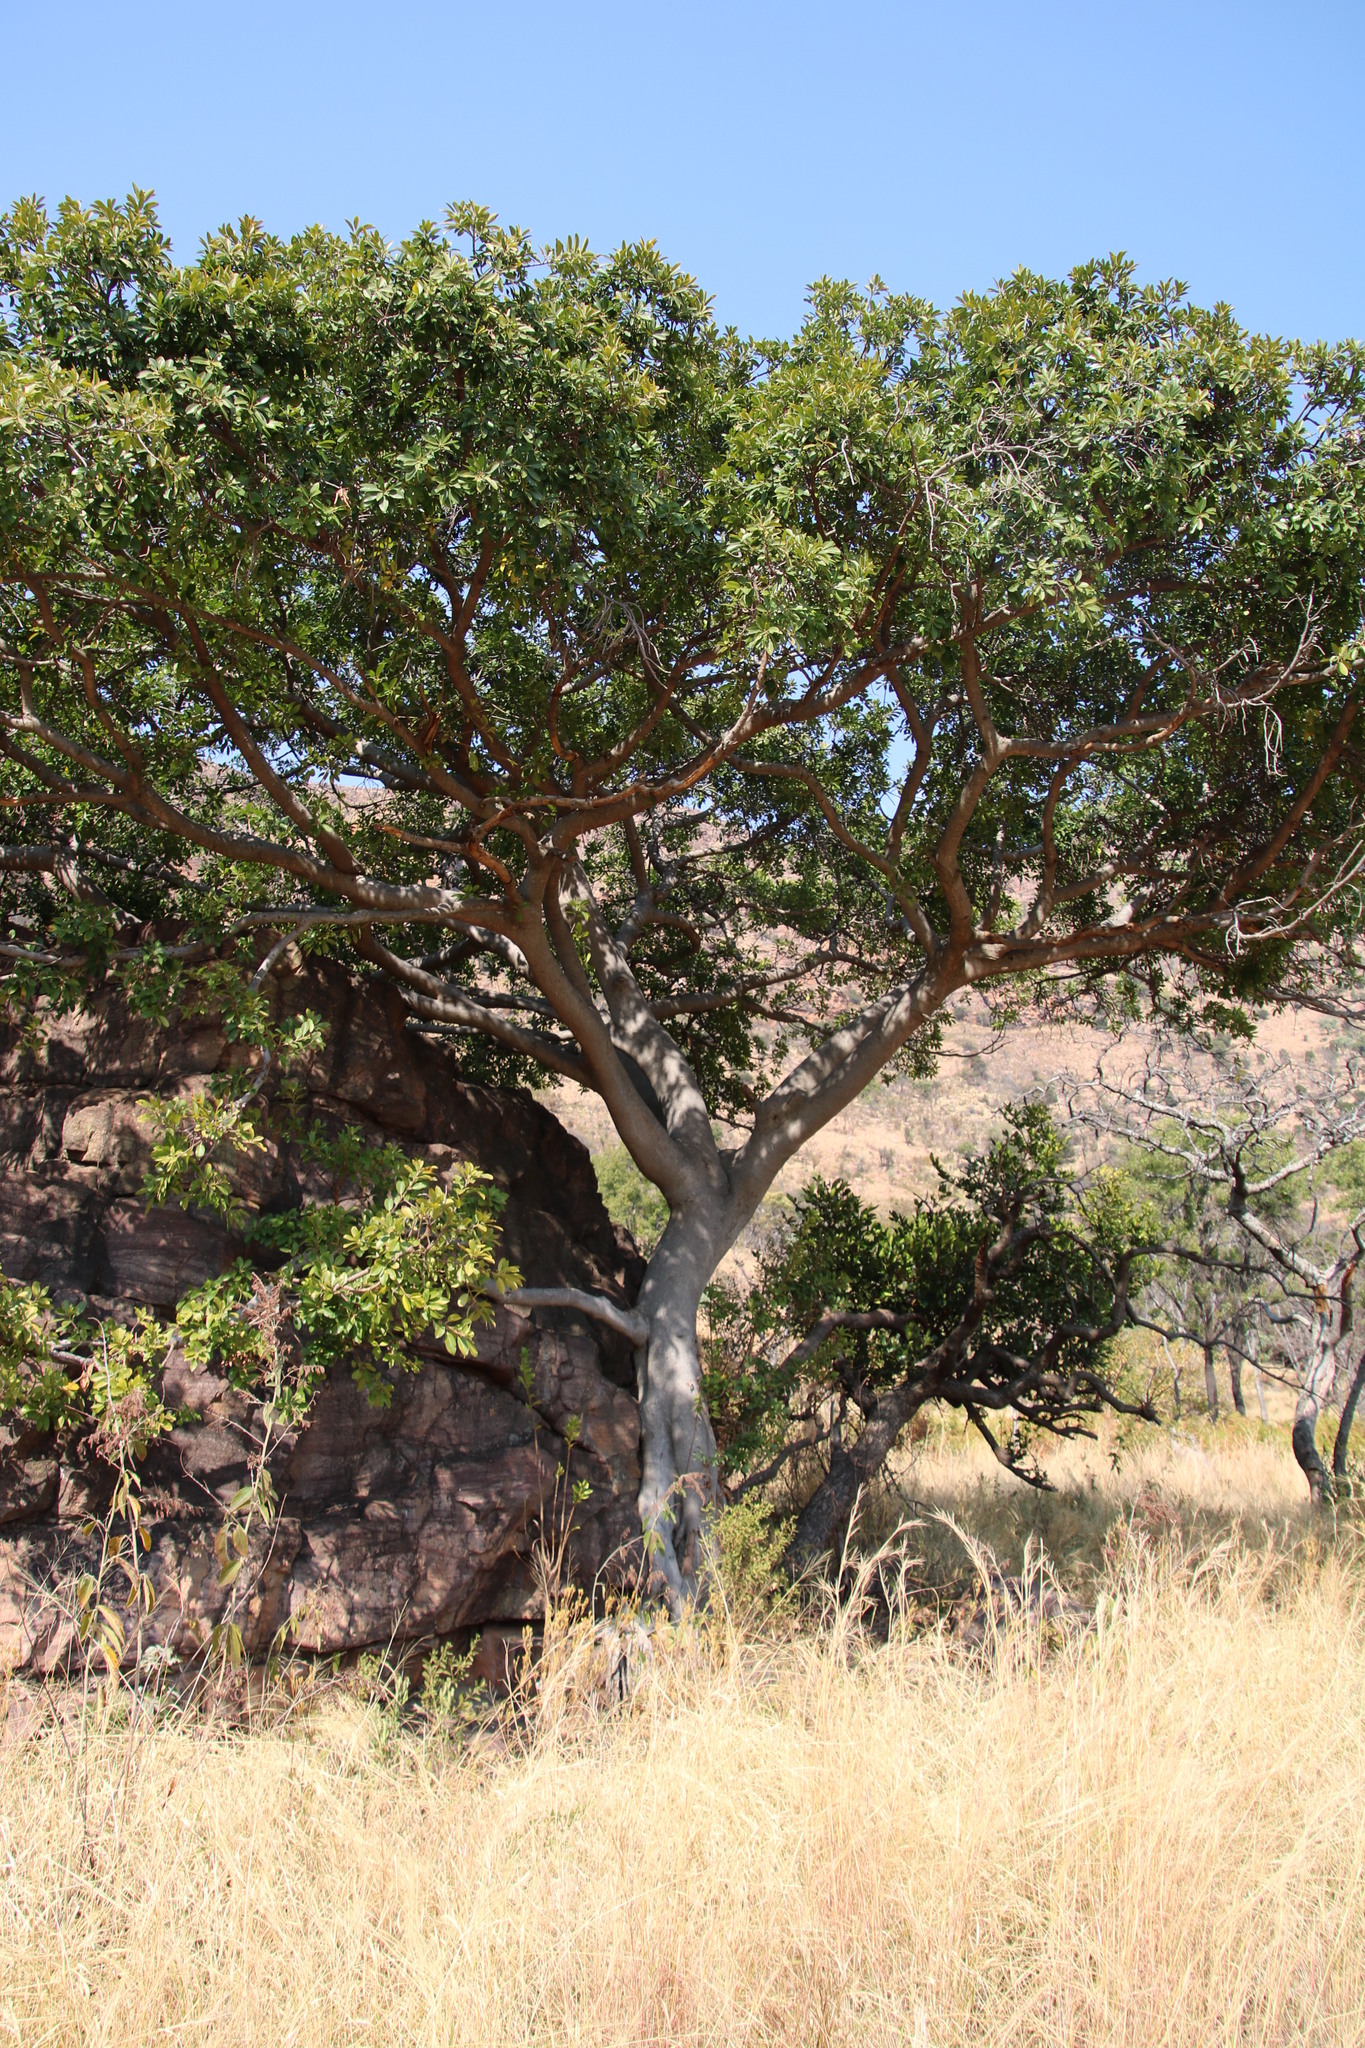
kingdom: Plantae
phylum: Tracheophyta
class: Magnoliopsida
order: Rosales
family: Moraceae
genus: Ficus
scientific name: Ficus thonningii
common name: Fig
